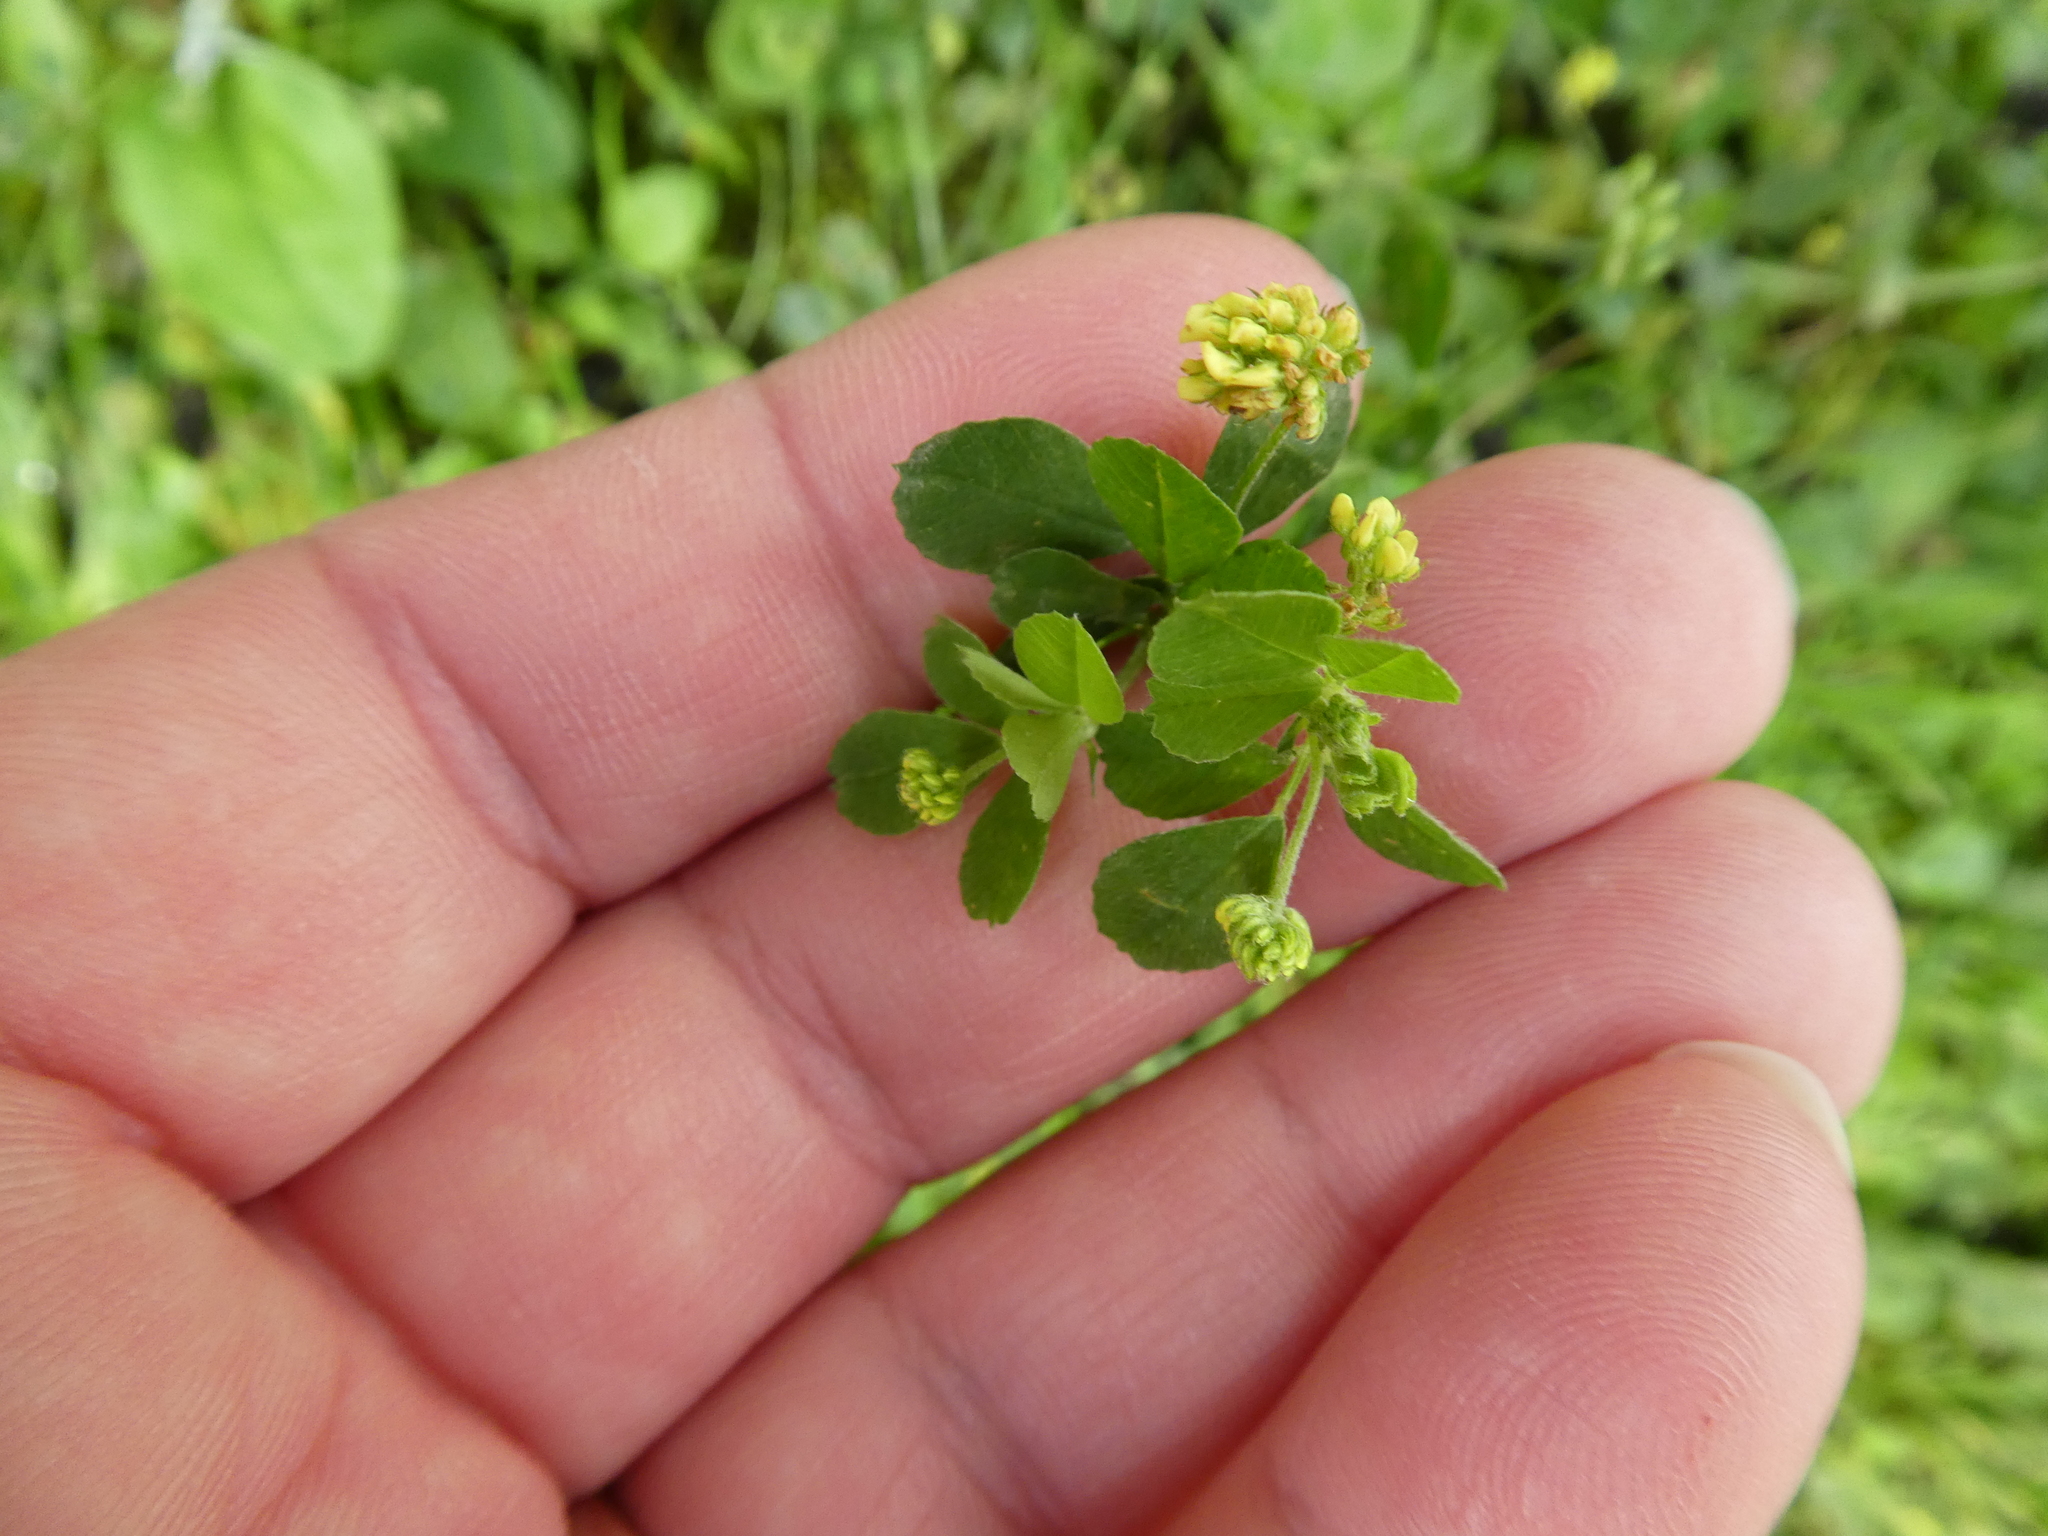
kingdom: Plantae
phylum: Tracheophyta
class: Magnoliopsida
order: Fabales
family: Fabaceae
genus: Medicago
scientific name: Medicago lupulina
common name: Black medick
